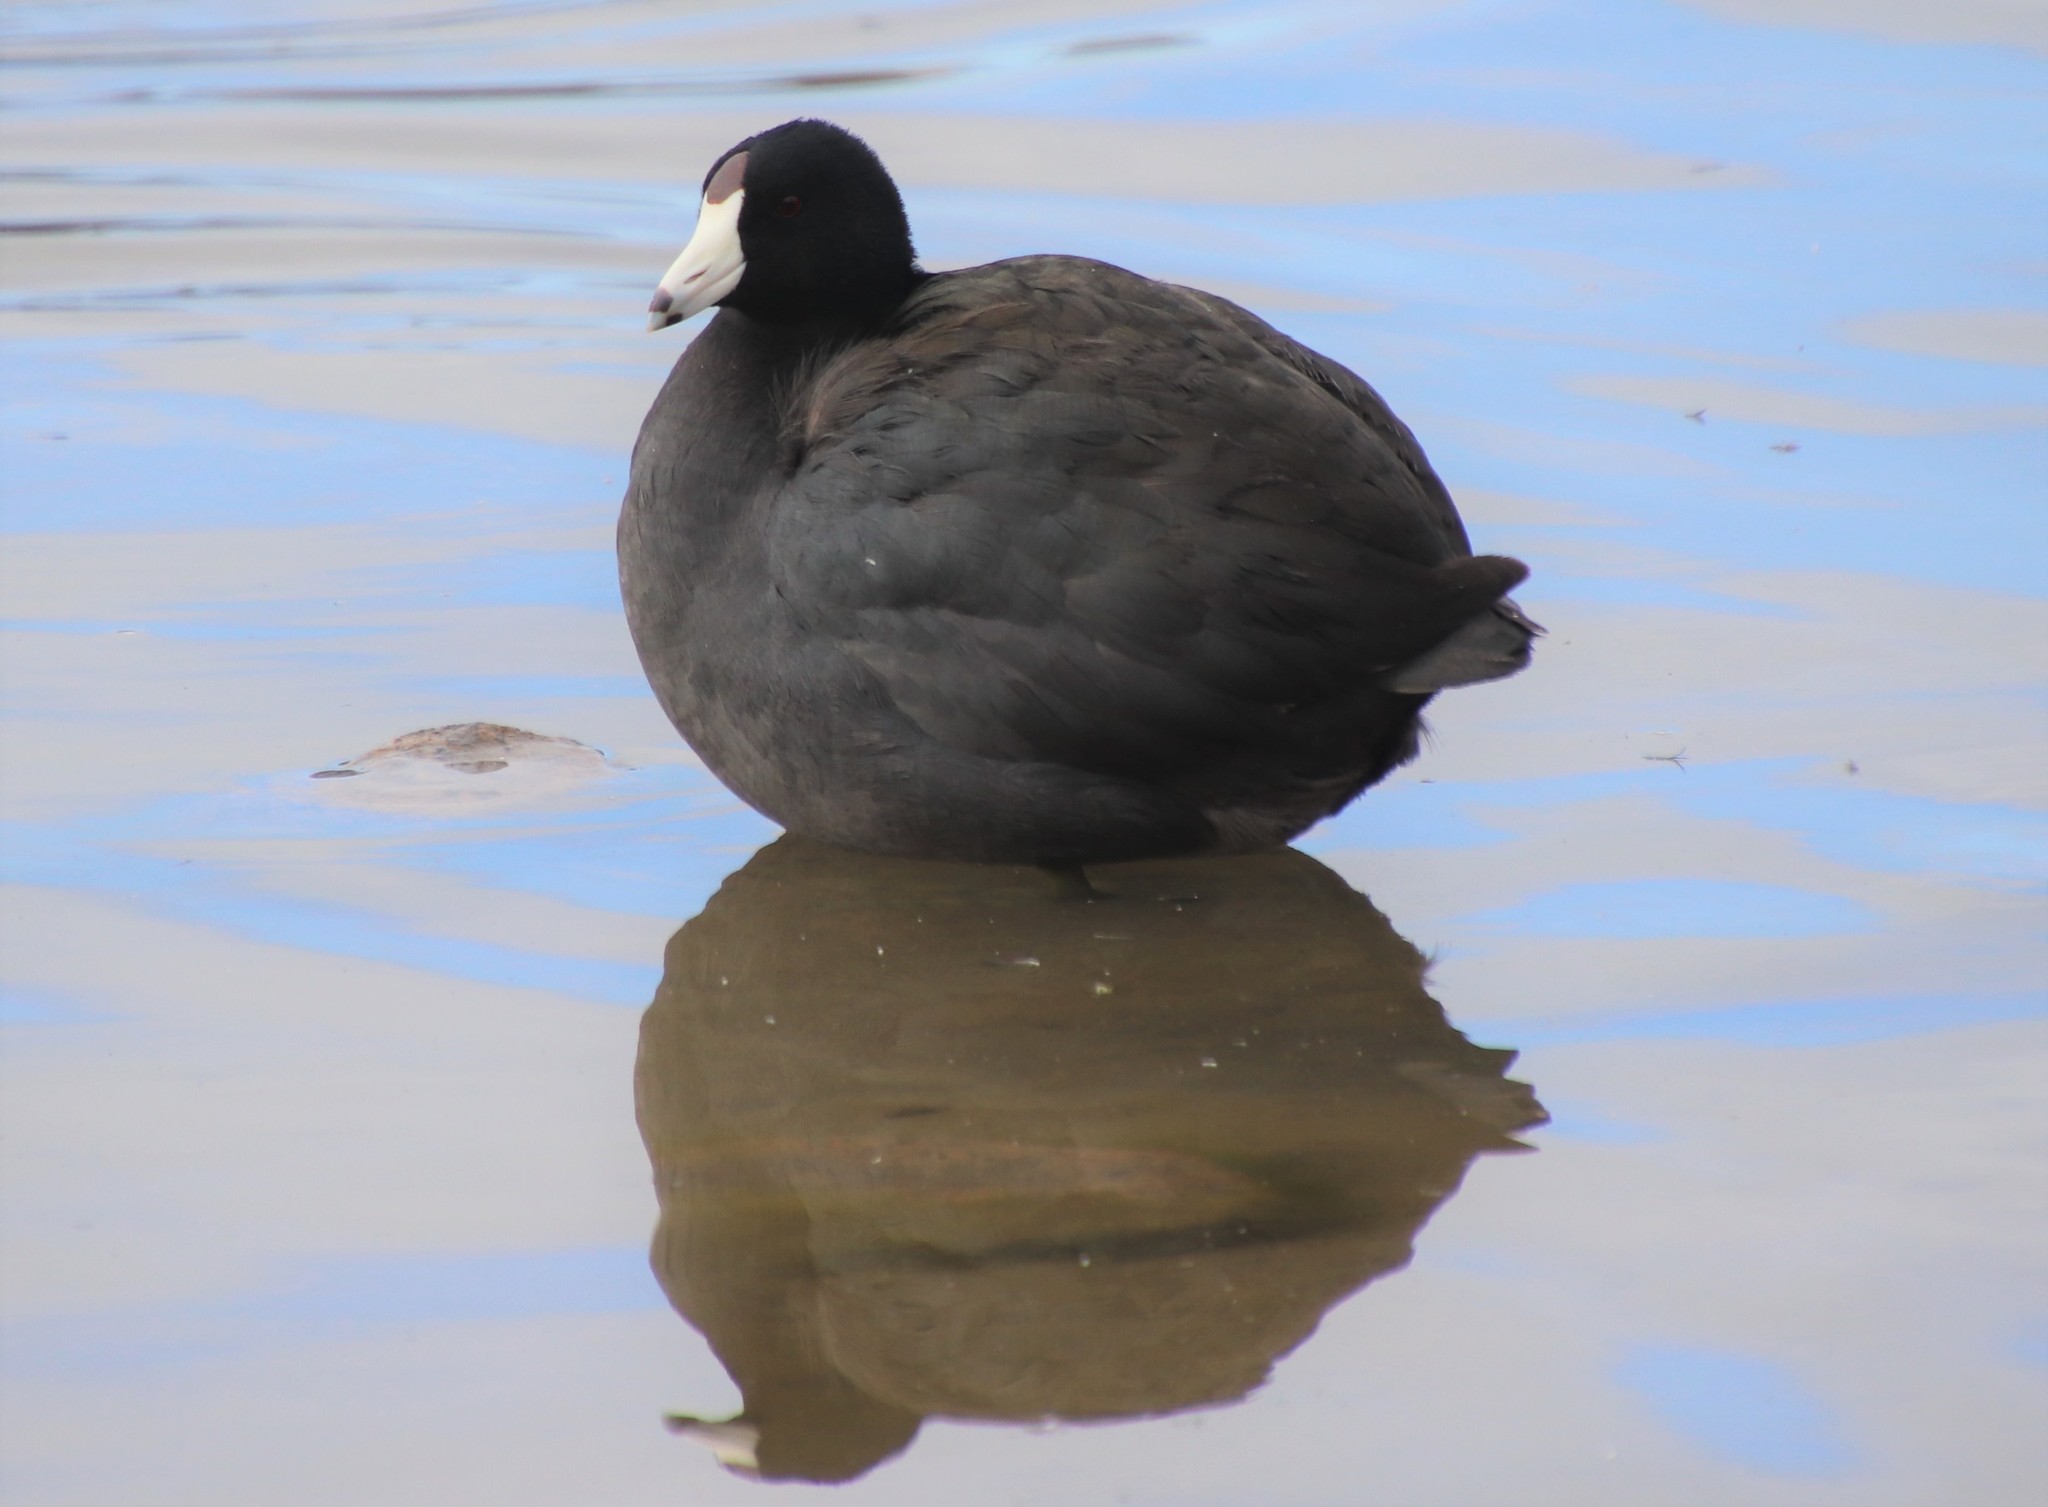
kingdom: Animalia
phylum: Chordata
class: Aves
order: Gruiformes
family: Rallidae
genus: Fulica
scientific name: Fulica americana
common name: American coot
